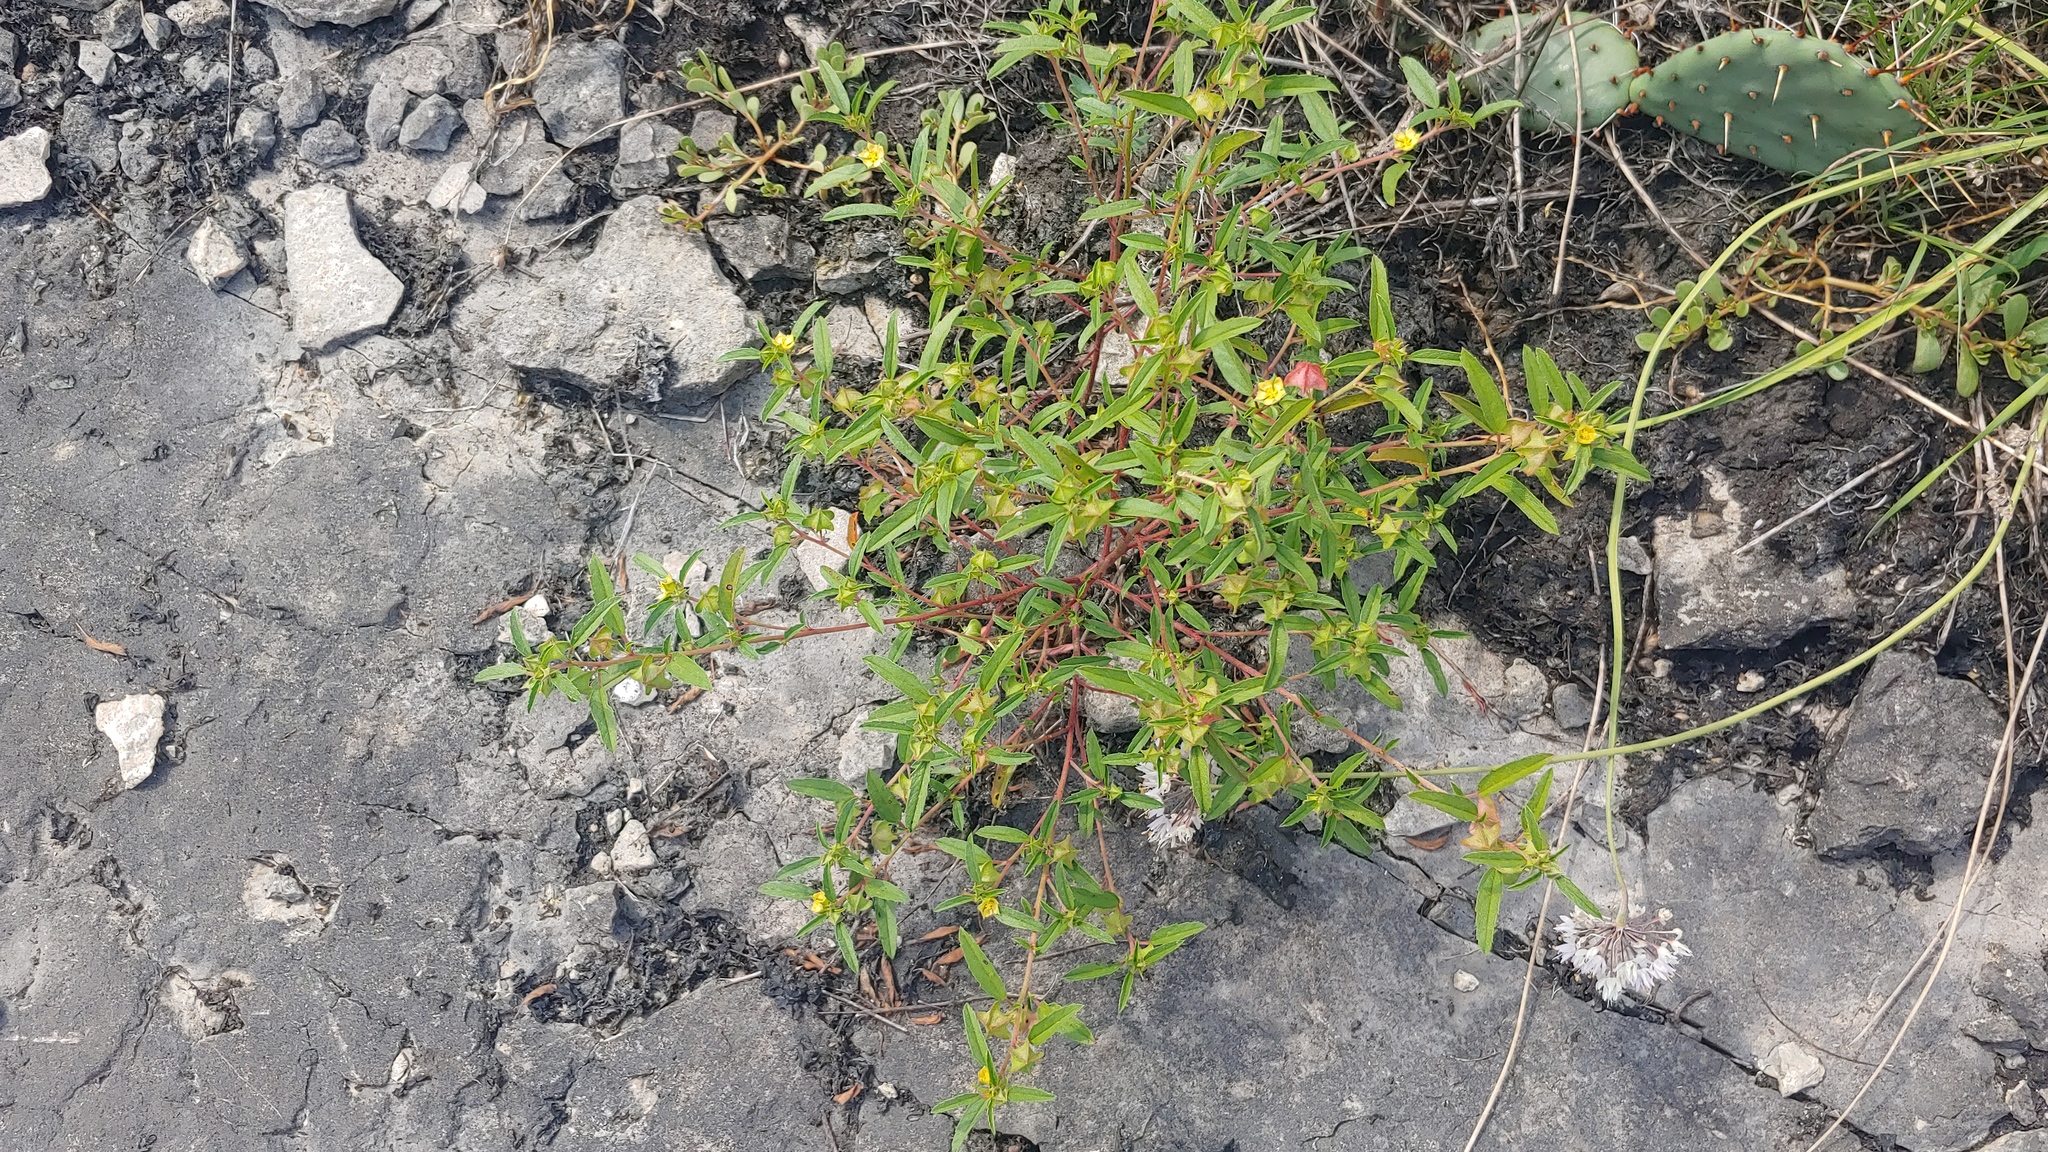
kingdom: Plantae
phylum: Tracheophyta
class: Magnoliopsida
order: Malvales
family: Malvaceae
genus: Malvastrum
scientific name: Malvastrum hispidum
